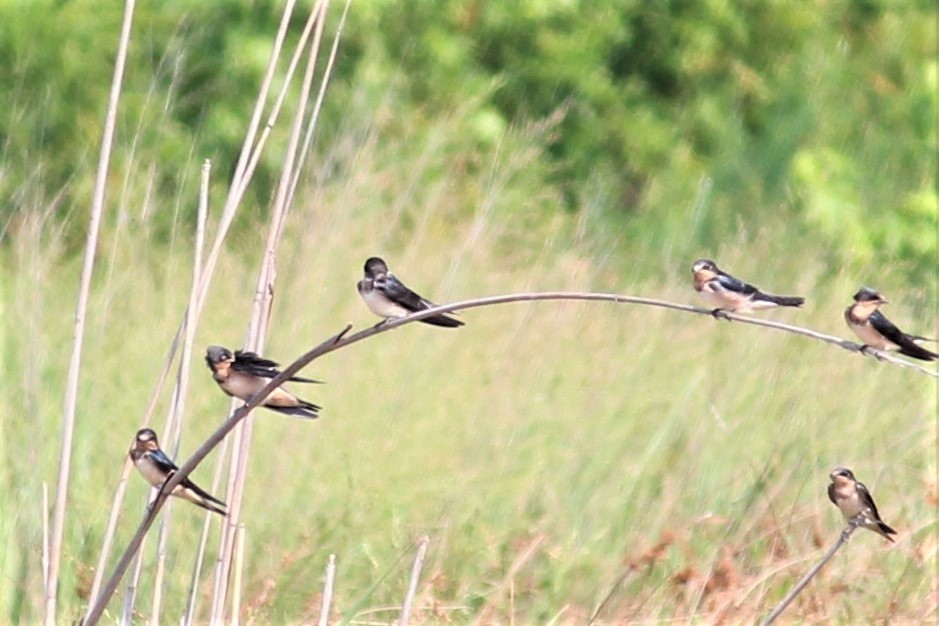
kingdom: Animalia
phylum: Chordata
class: Aves
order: Passeriformes
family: Hirundinidae
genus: Hirundo
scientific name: Hirundo rustica
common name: Barn swallow
